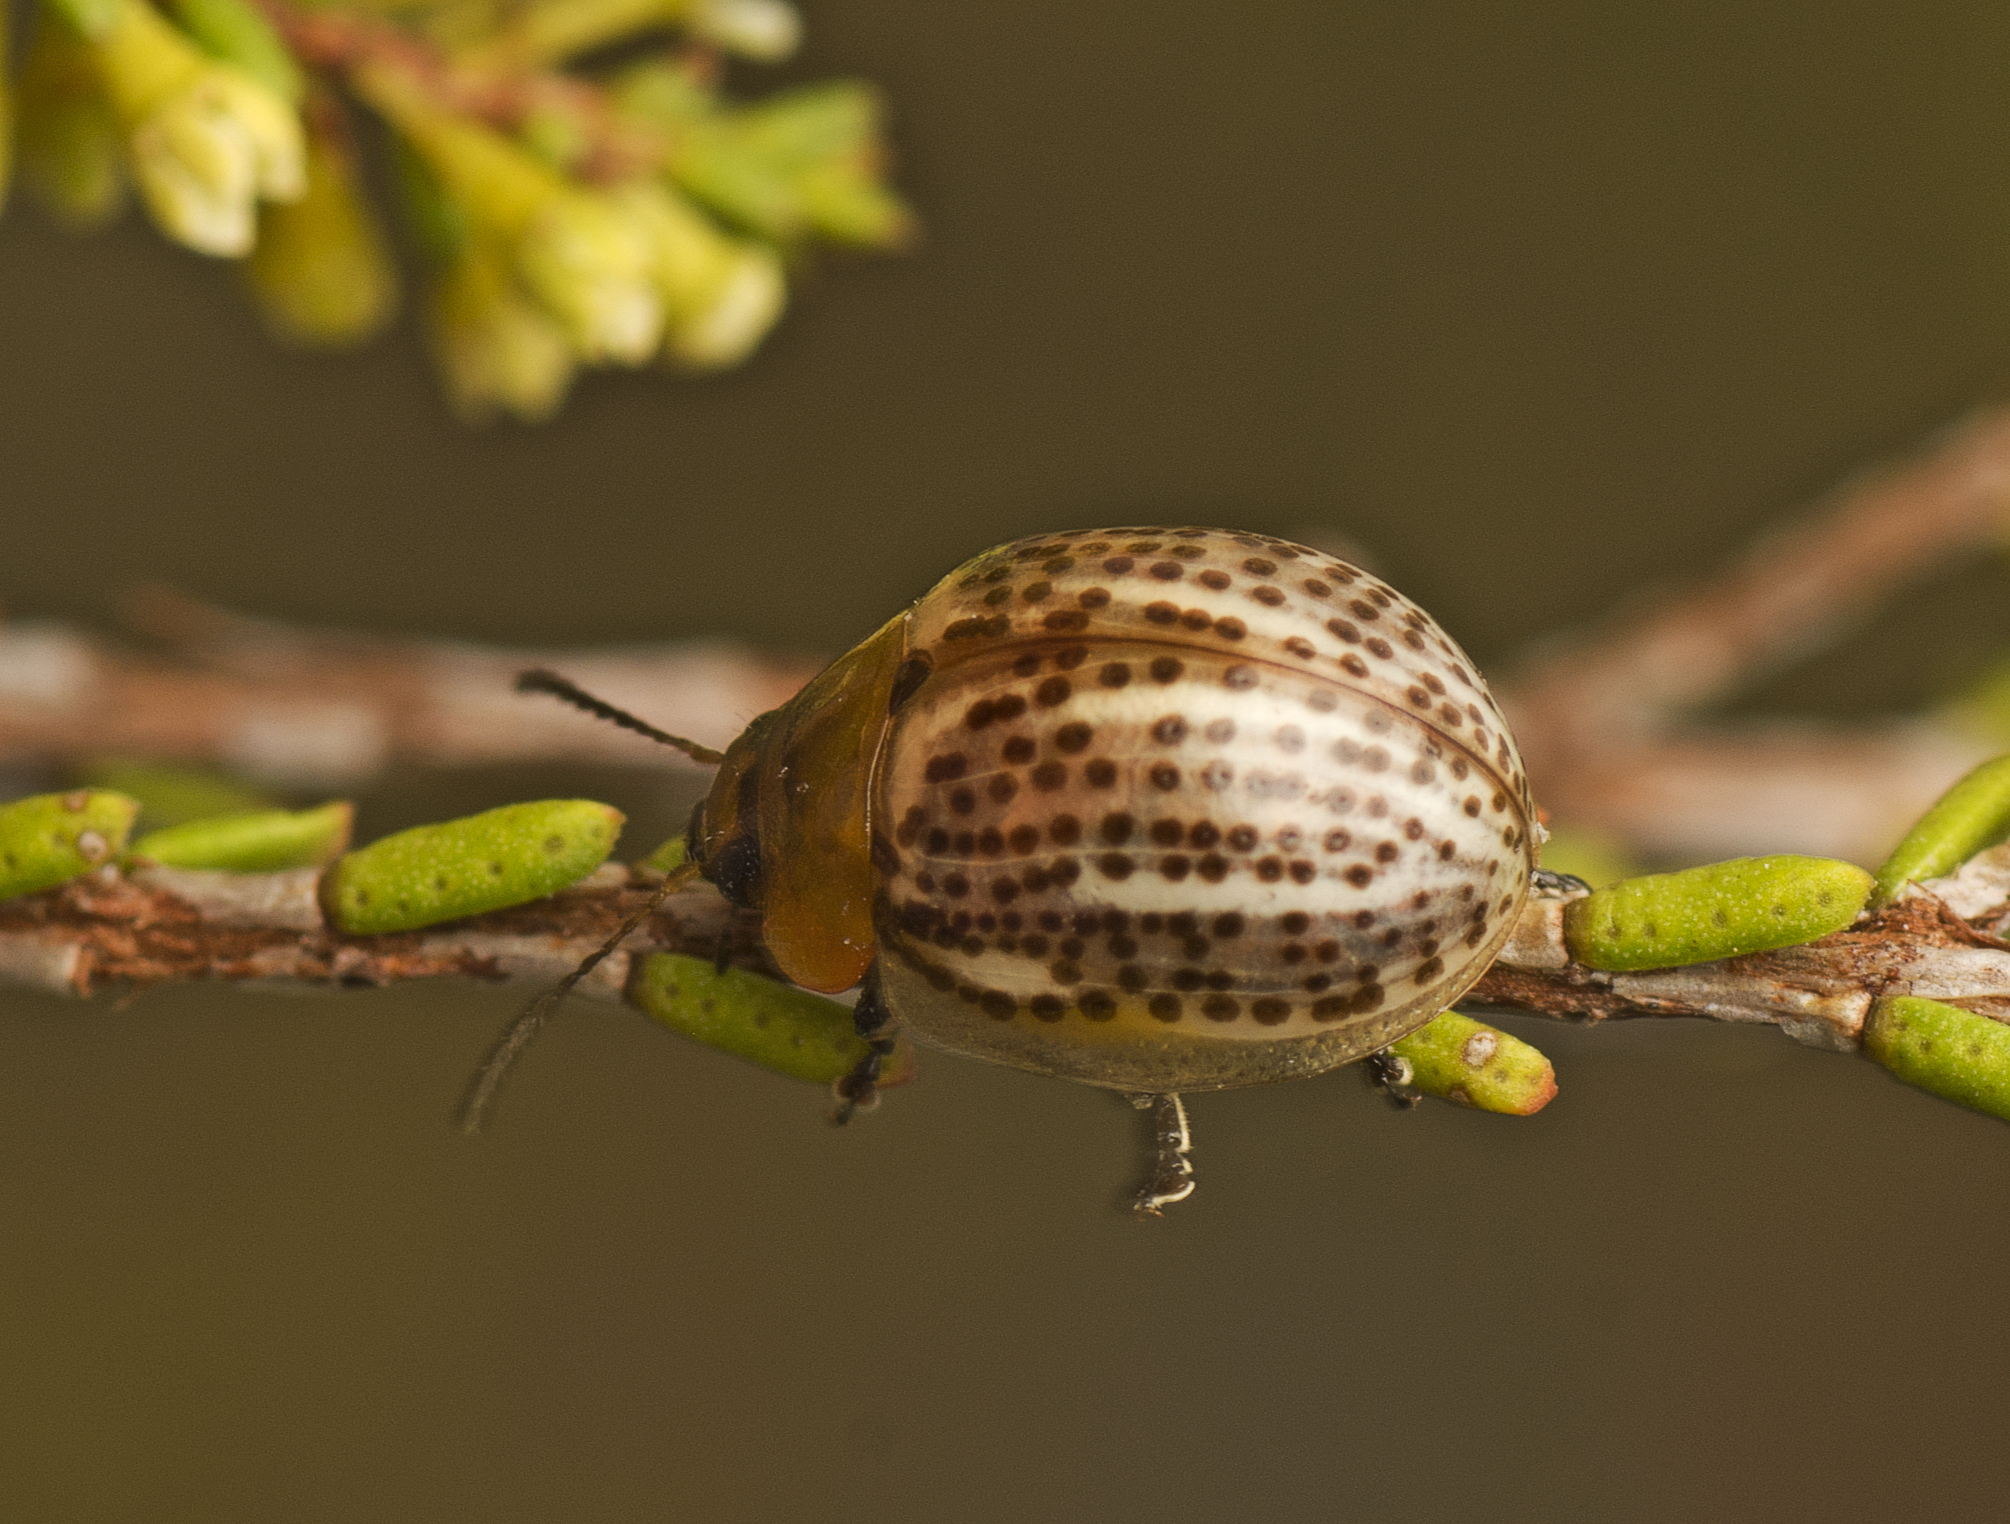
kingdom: Animalia
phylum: Arthropoda
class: Insecta
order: Coleoptera
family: Chrysomelidae
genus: Paropsisterna
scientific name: Paropsisterna
